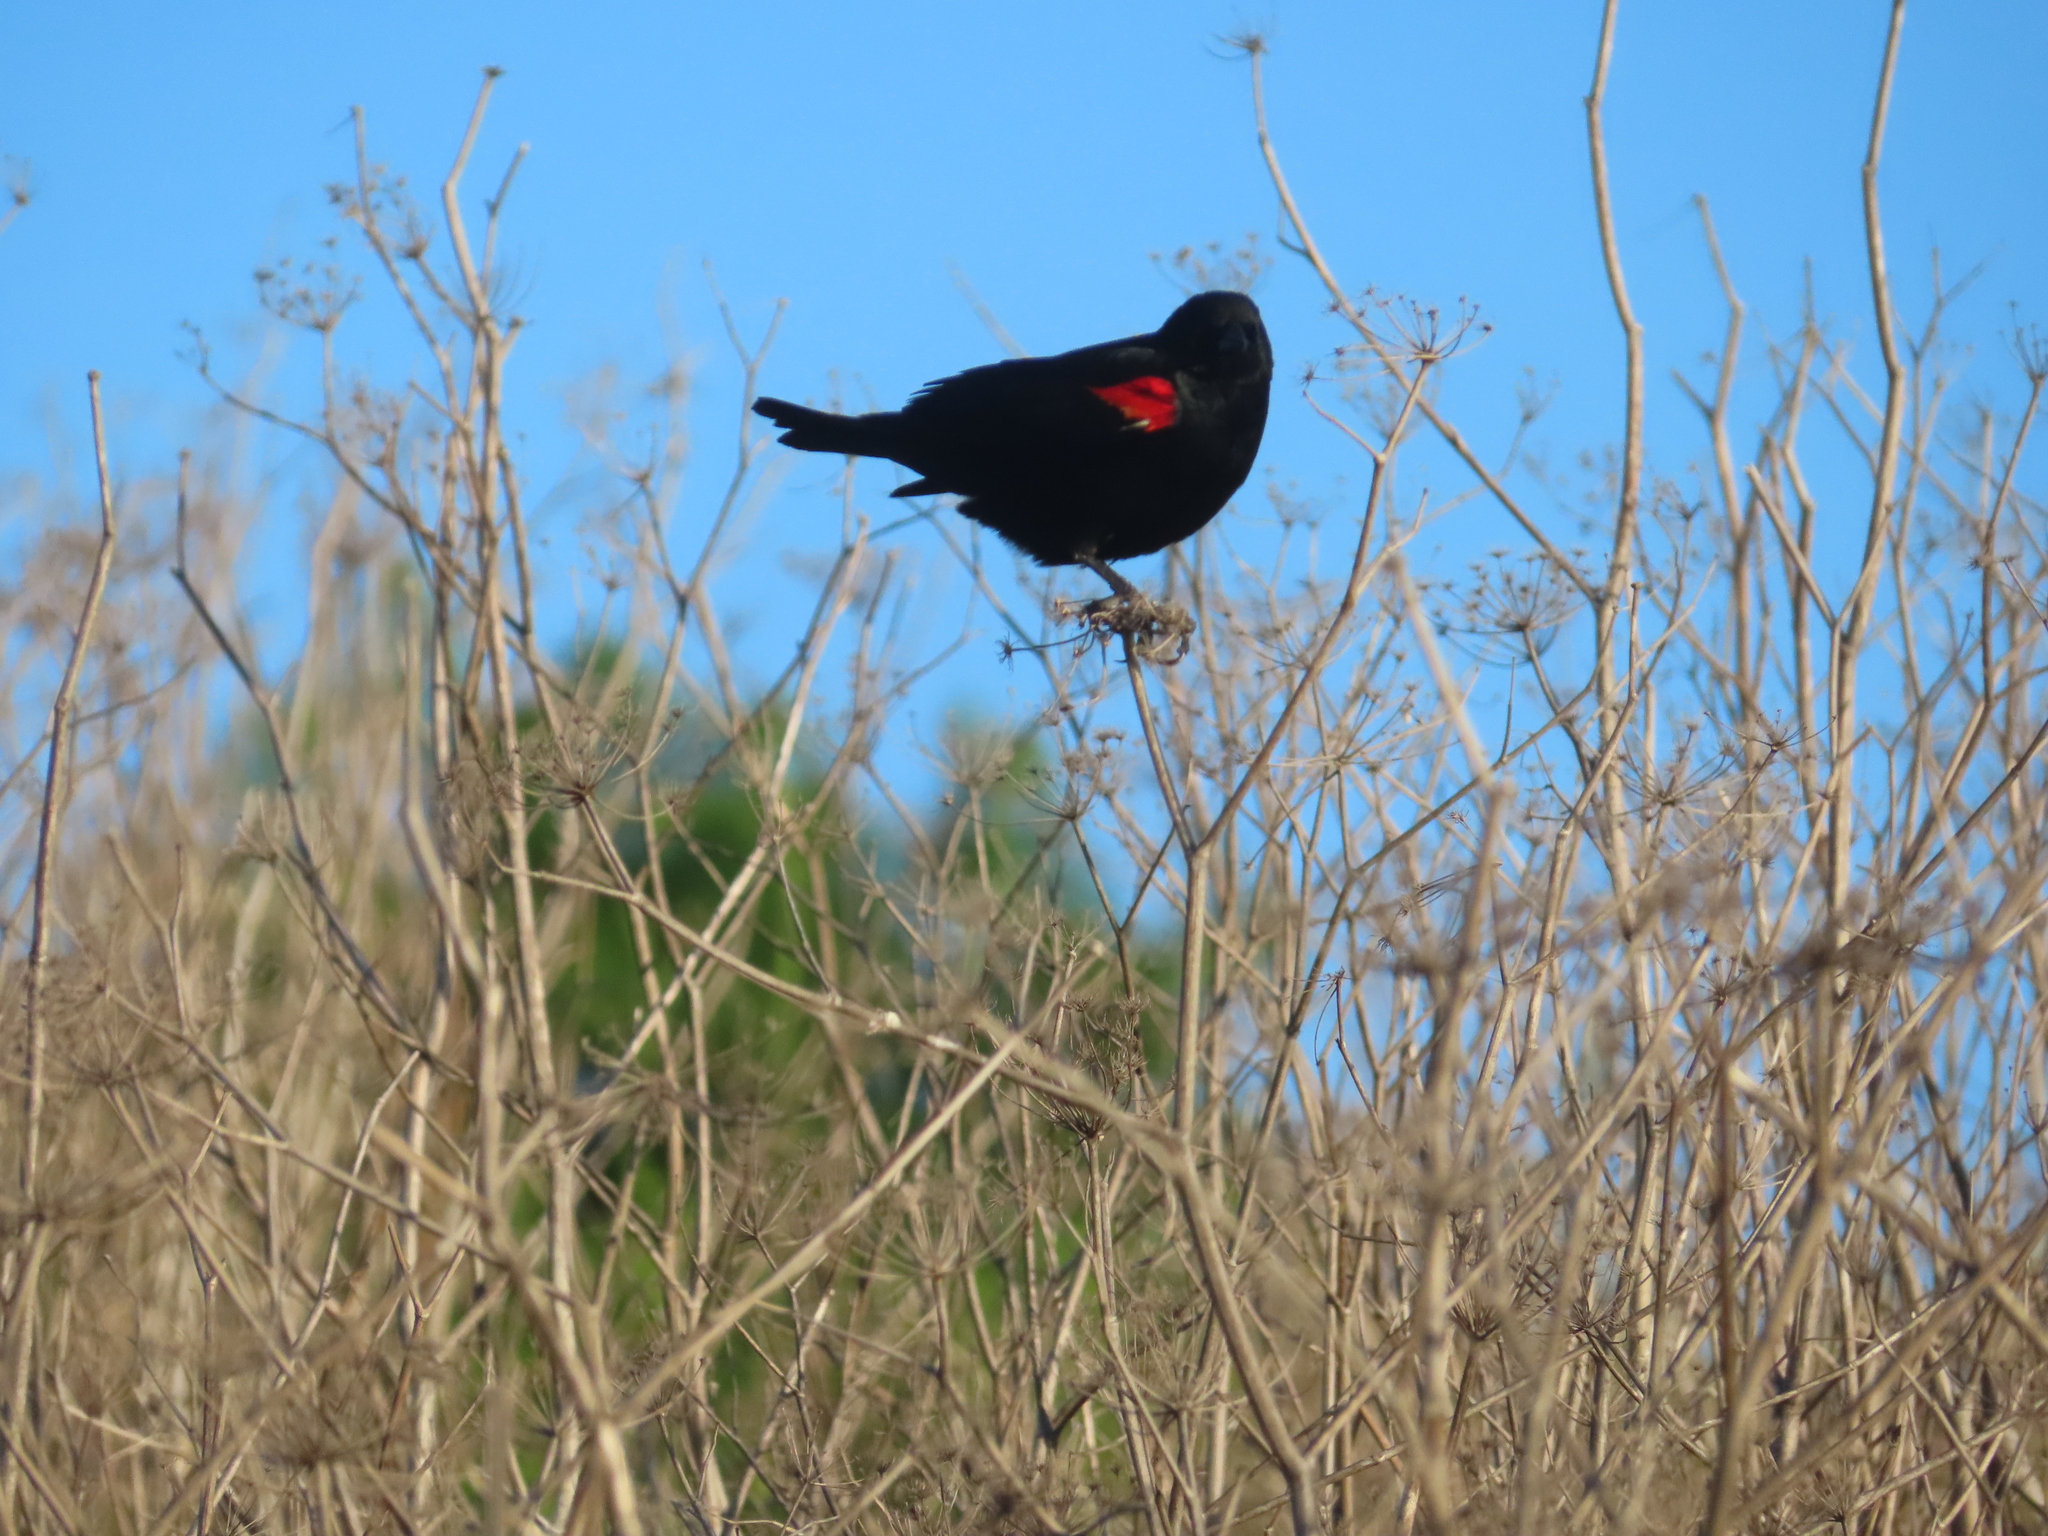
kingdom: Animalia
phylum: Chordata
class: Aves
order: Passeriformes
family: Icteridae
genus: Agelaius
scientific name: Agelaius phoeniceus
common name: Red-winged blackbird
